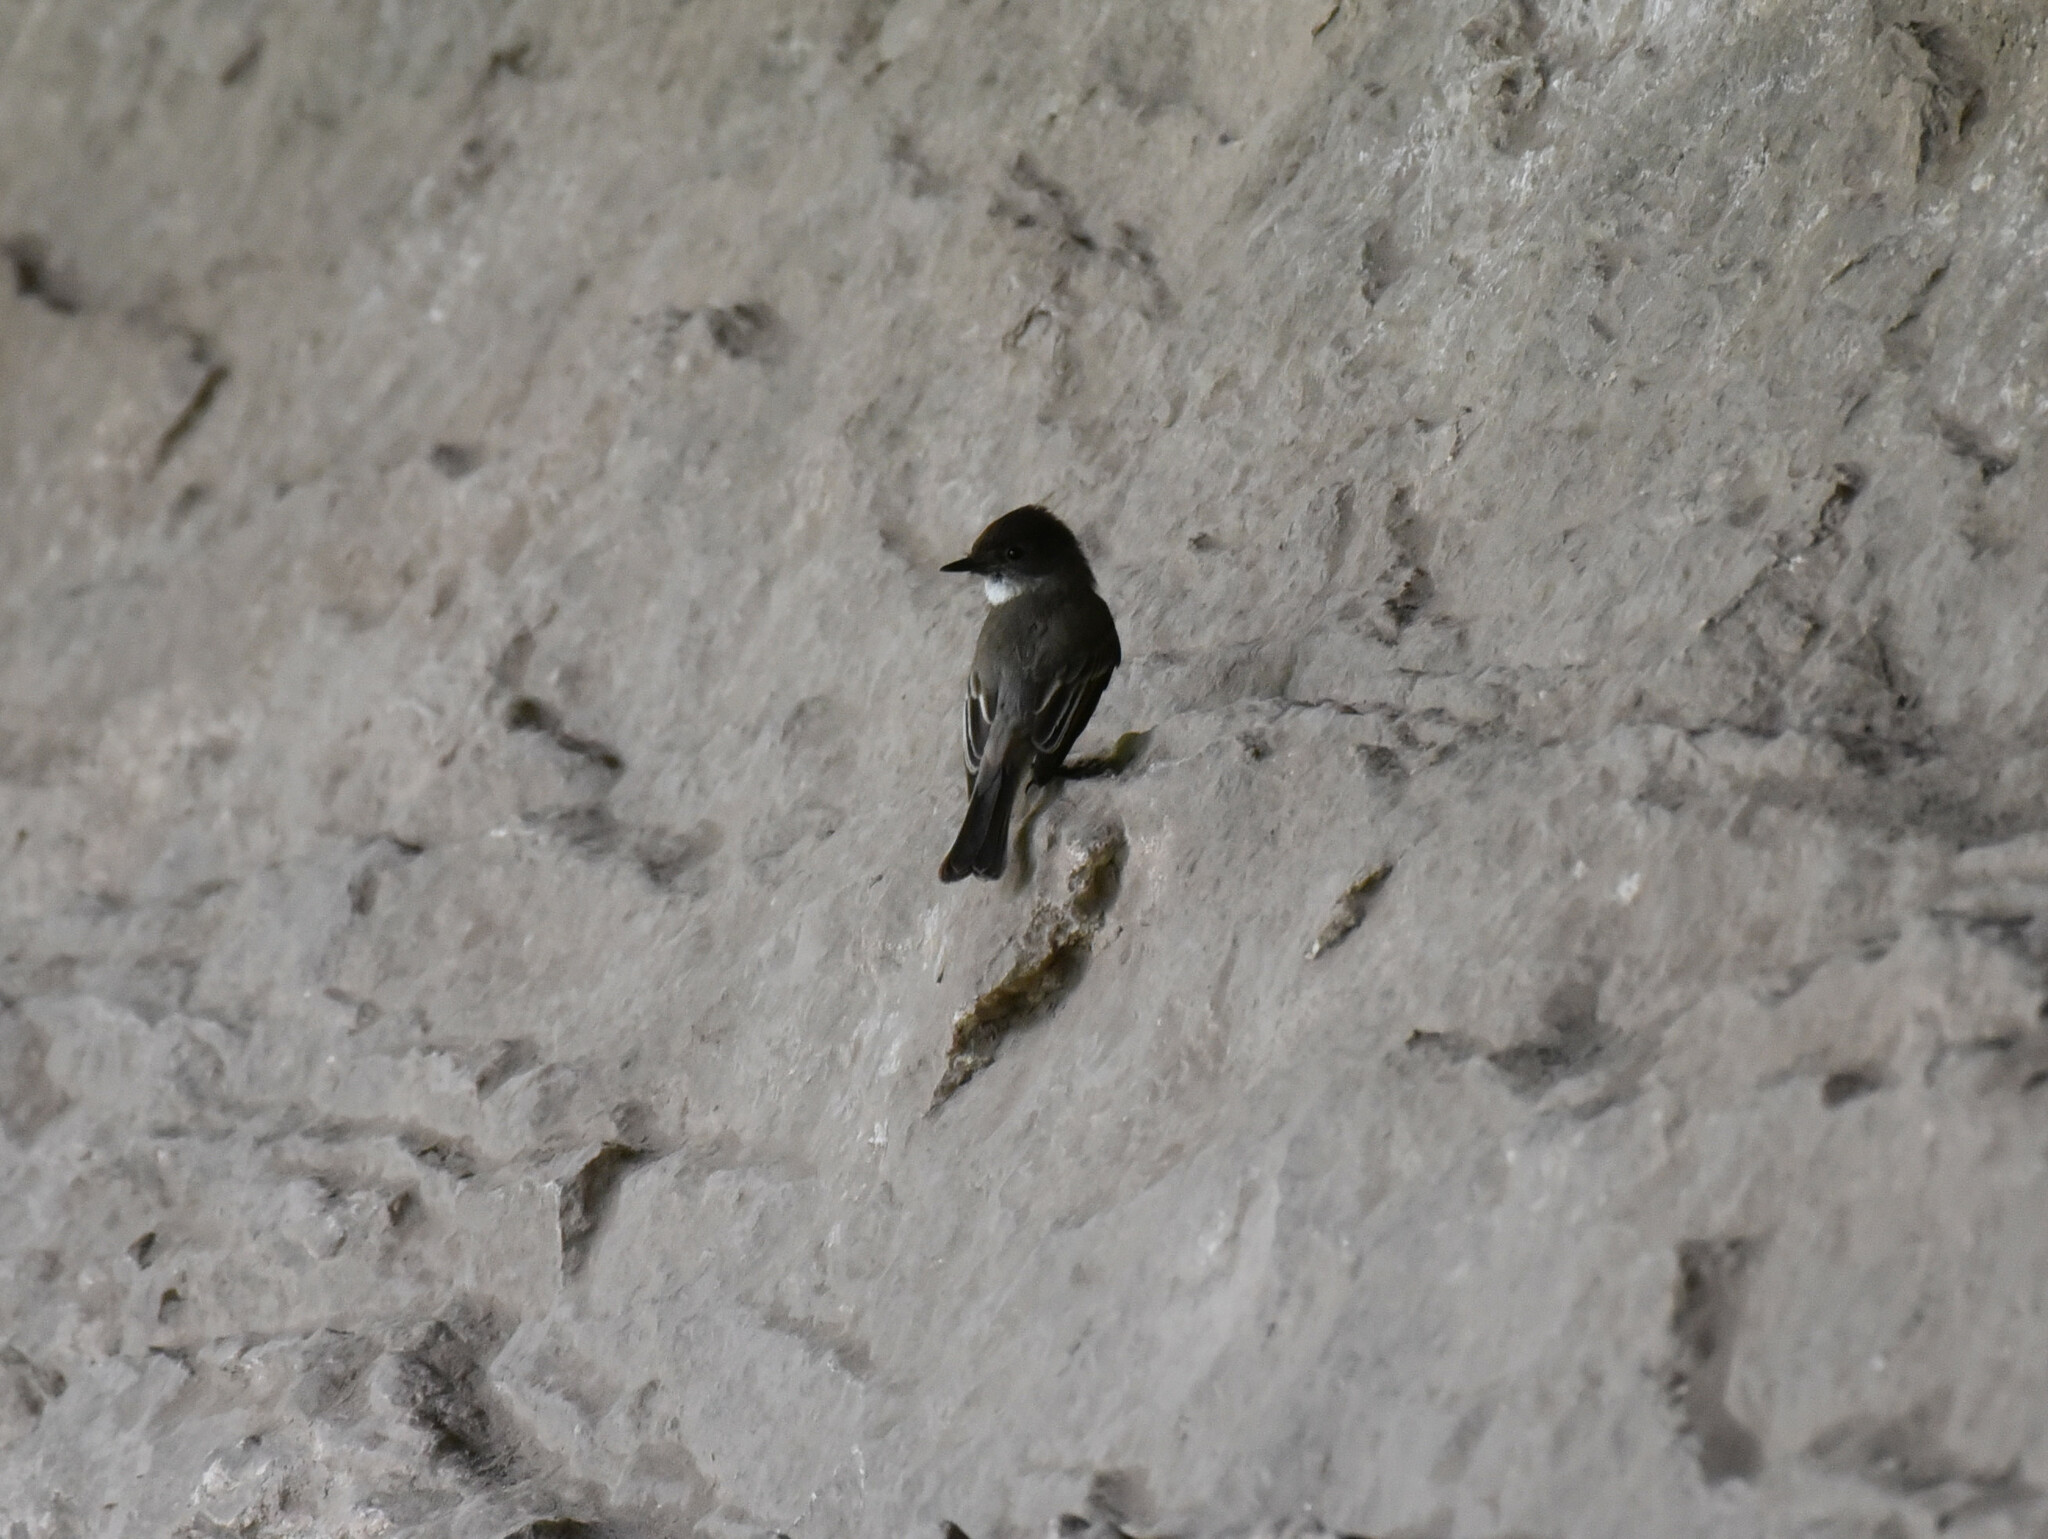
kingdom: Animalia
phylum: Chordata
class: Aves
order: Passeriformes
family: Tyrannidae
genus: Sayornis
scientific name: Sayornis phoebe
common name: Eastern phoebe
